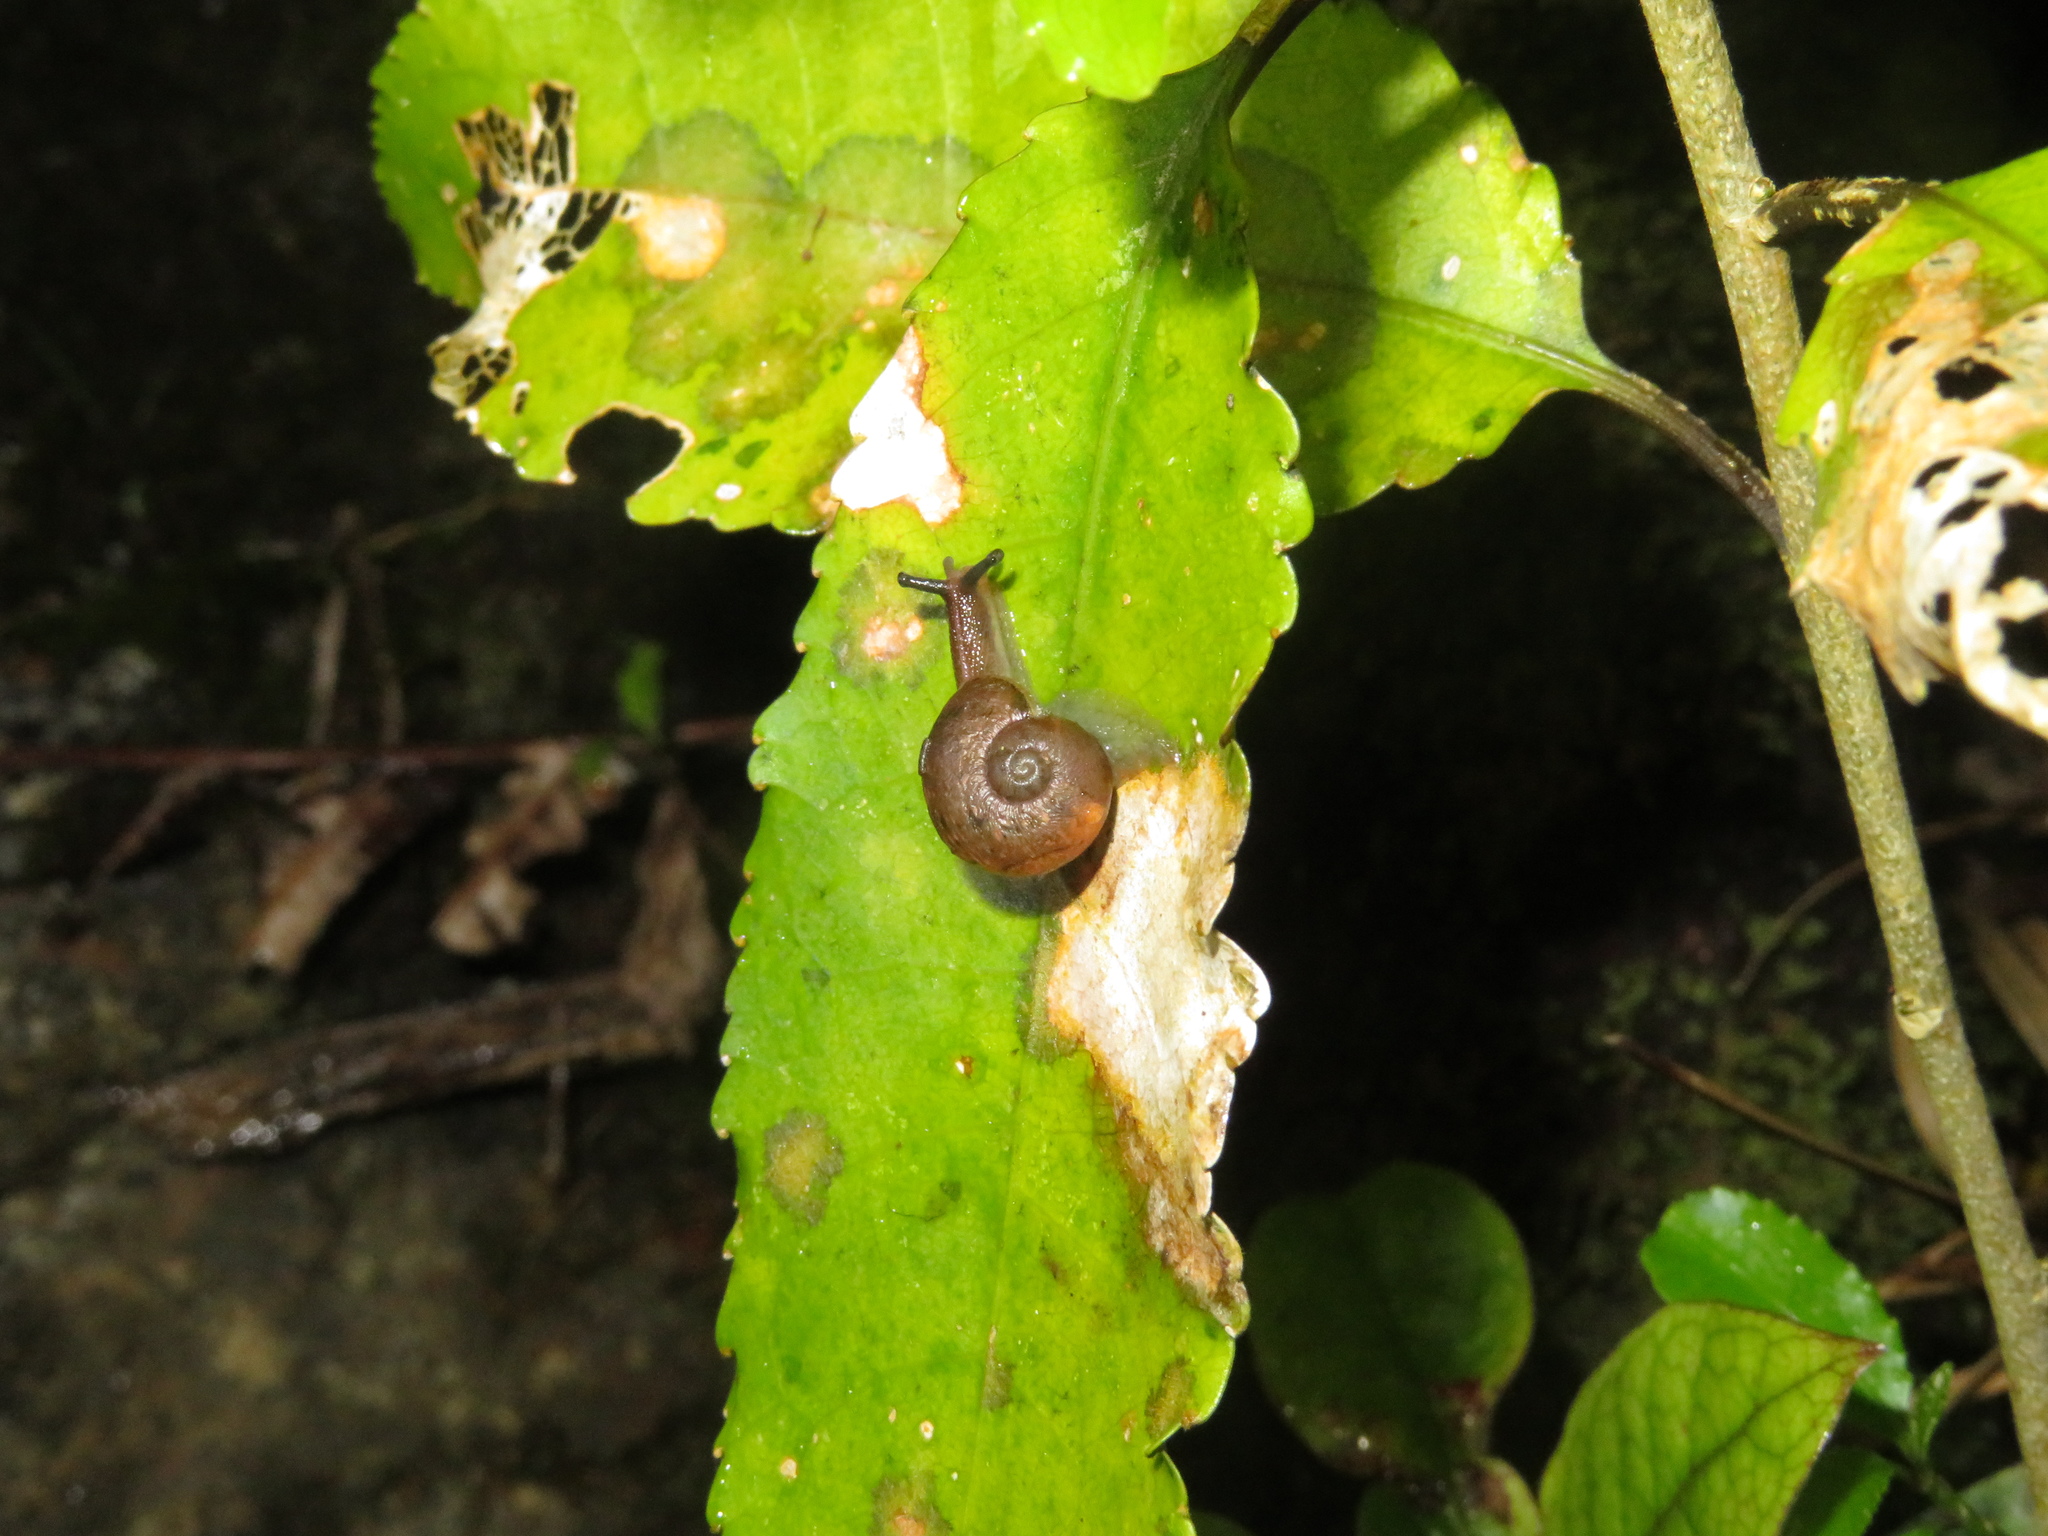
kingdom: Animalia
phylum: Mollusca
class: Gastropoda
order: Stylommatophora
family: Rhytididae
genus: Rhytida
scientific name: Rhytida meesoni
